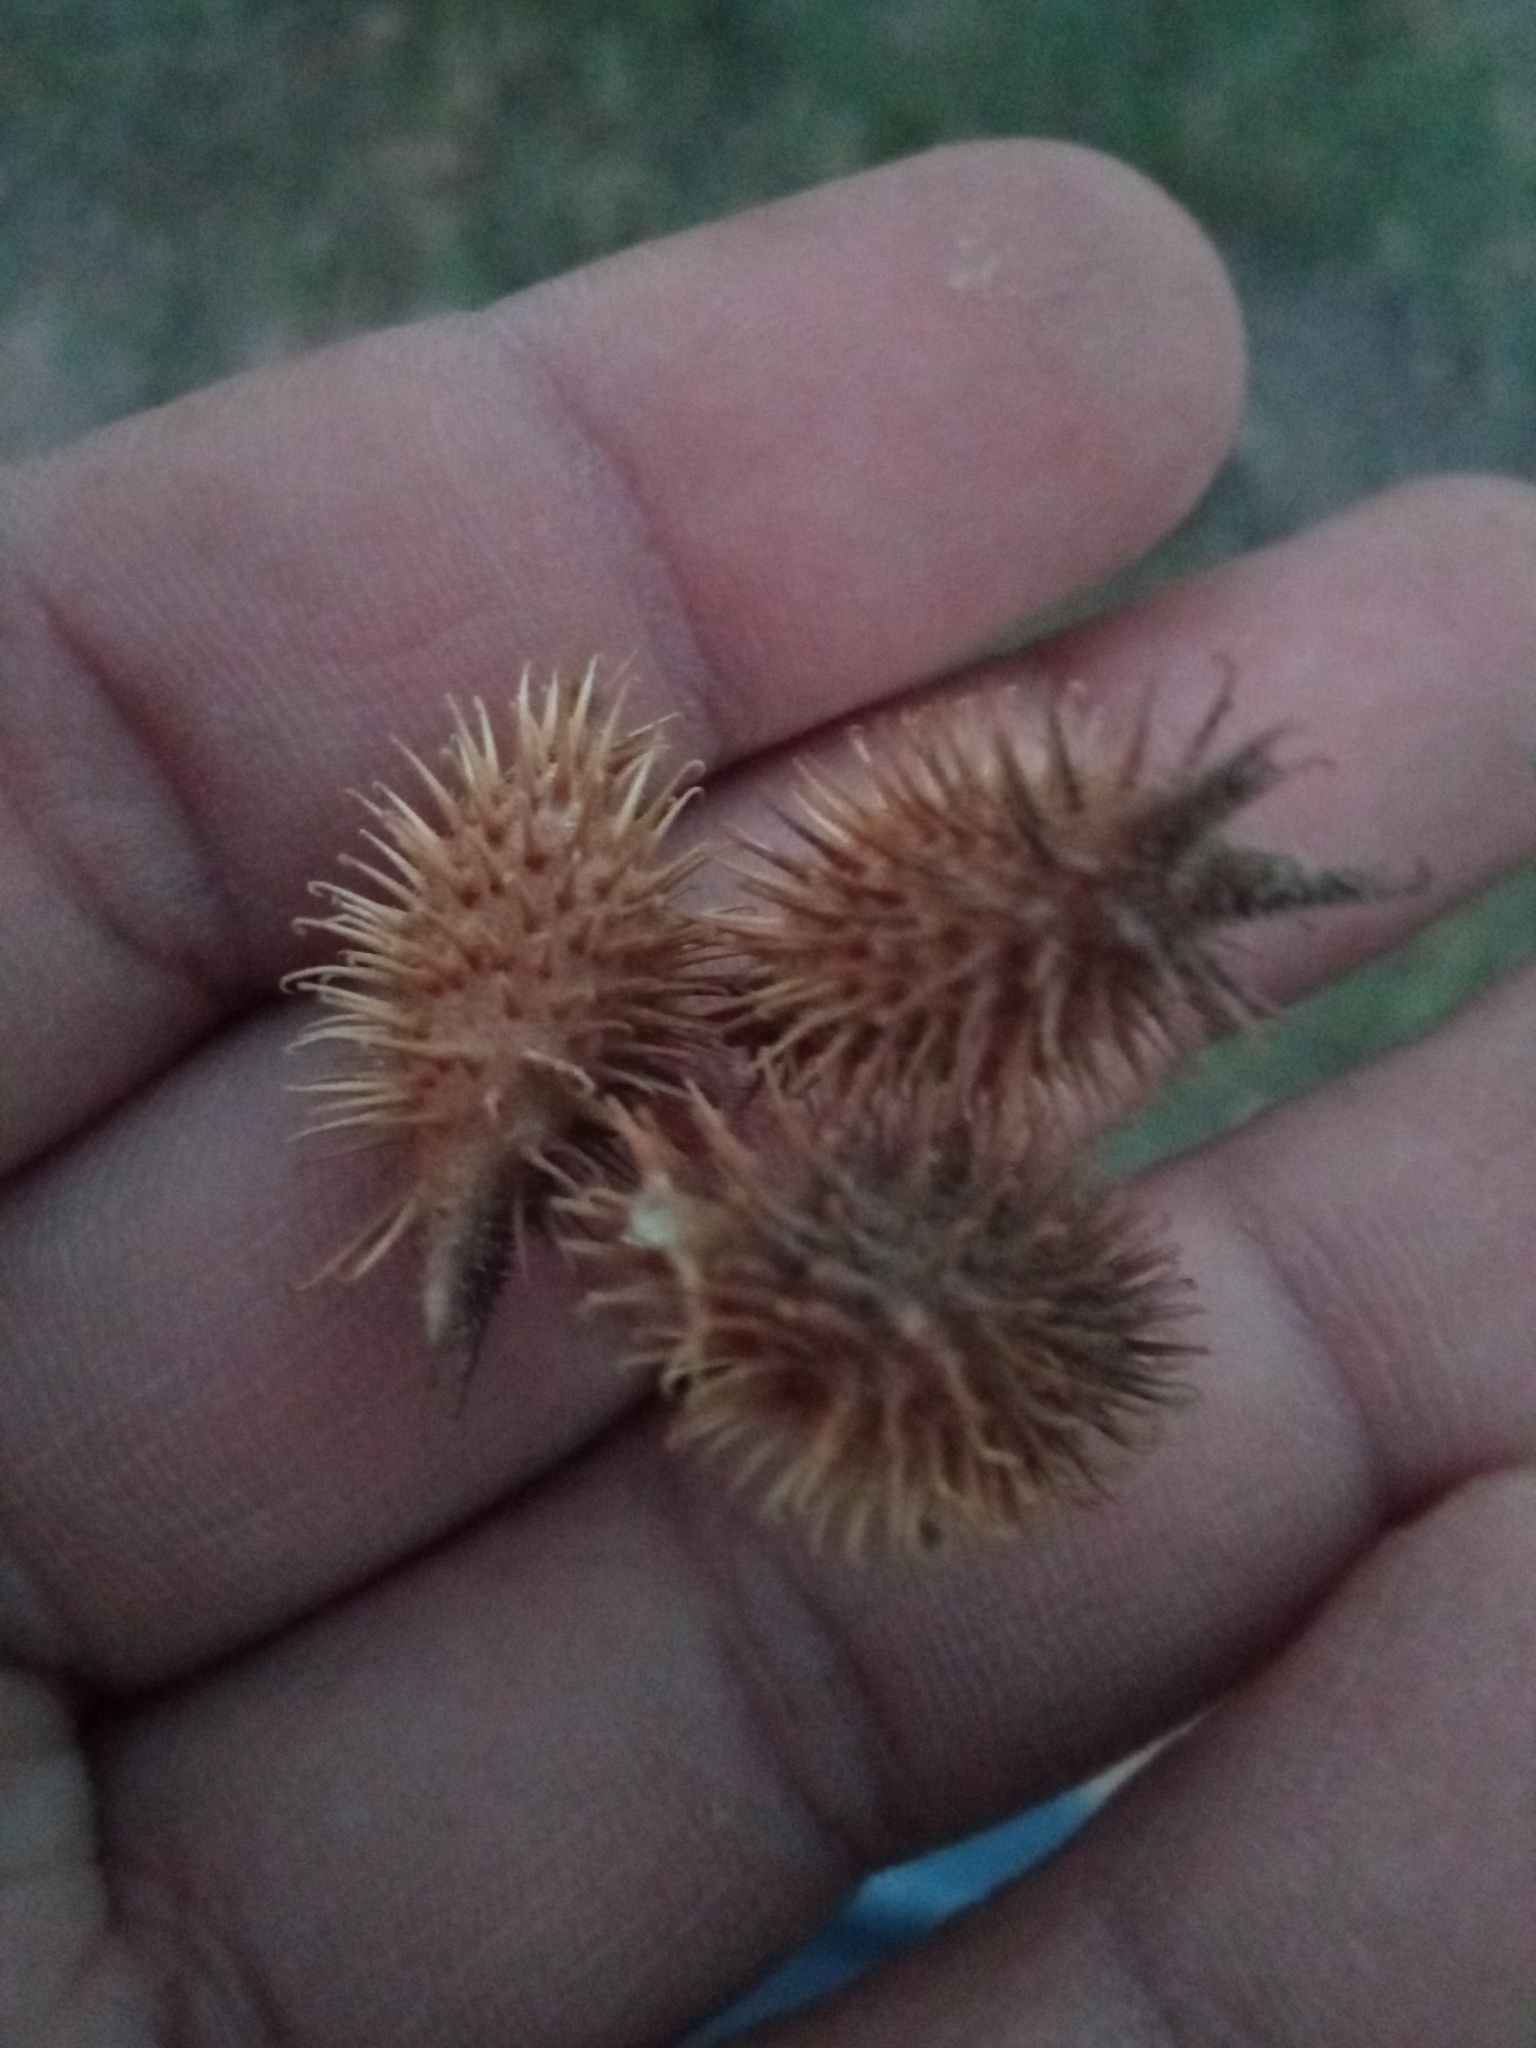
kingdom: Plantae
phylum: Tracheophyta
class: Magnoliopsida
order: Asterales
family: Asteraceae
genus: Xanthium
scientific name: Xanthium strumarium
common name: Rough cocklebur
